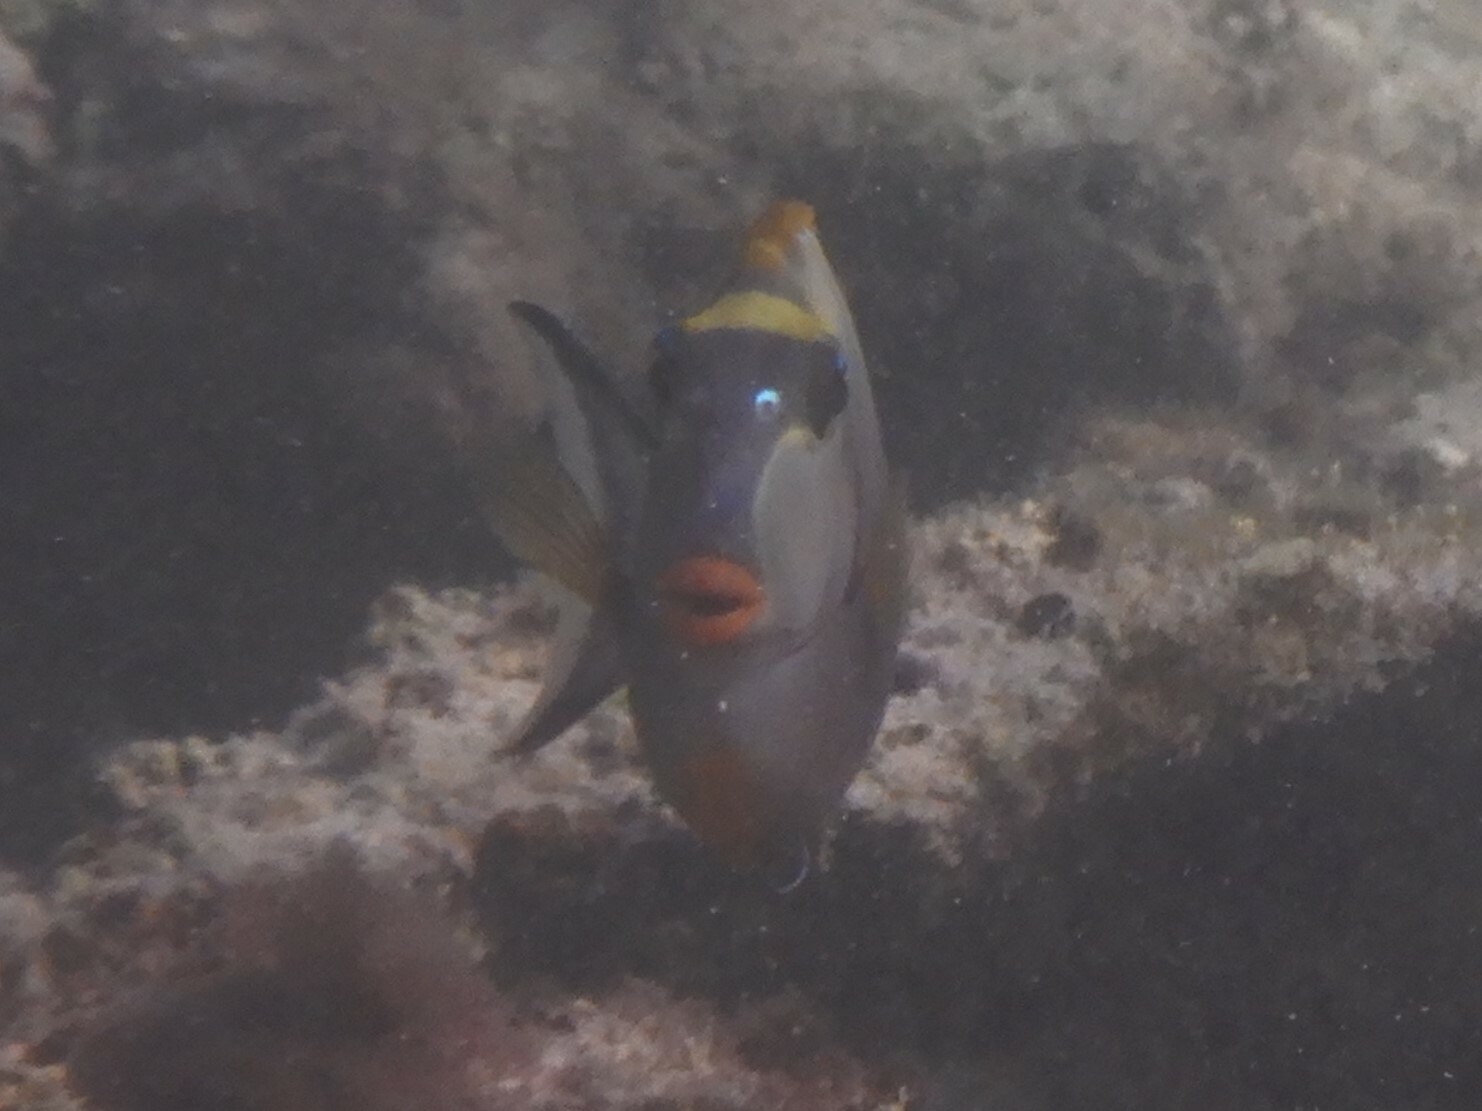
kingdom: Animalia
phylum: Chordata
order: Perciformes
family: Acanthuridae
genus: Naso
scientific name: Naso elegans
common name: Orangespine unicornfish
